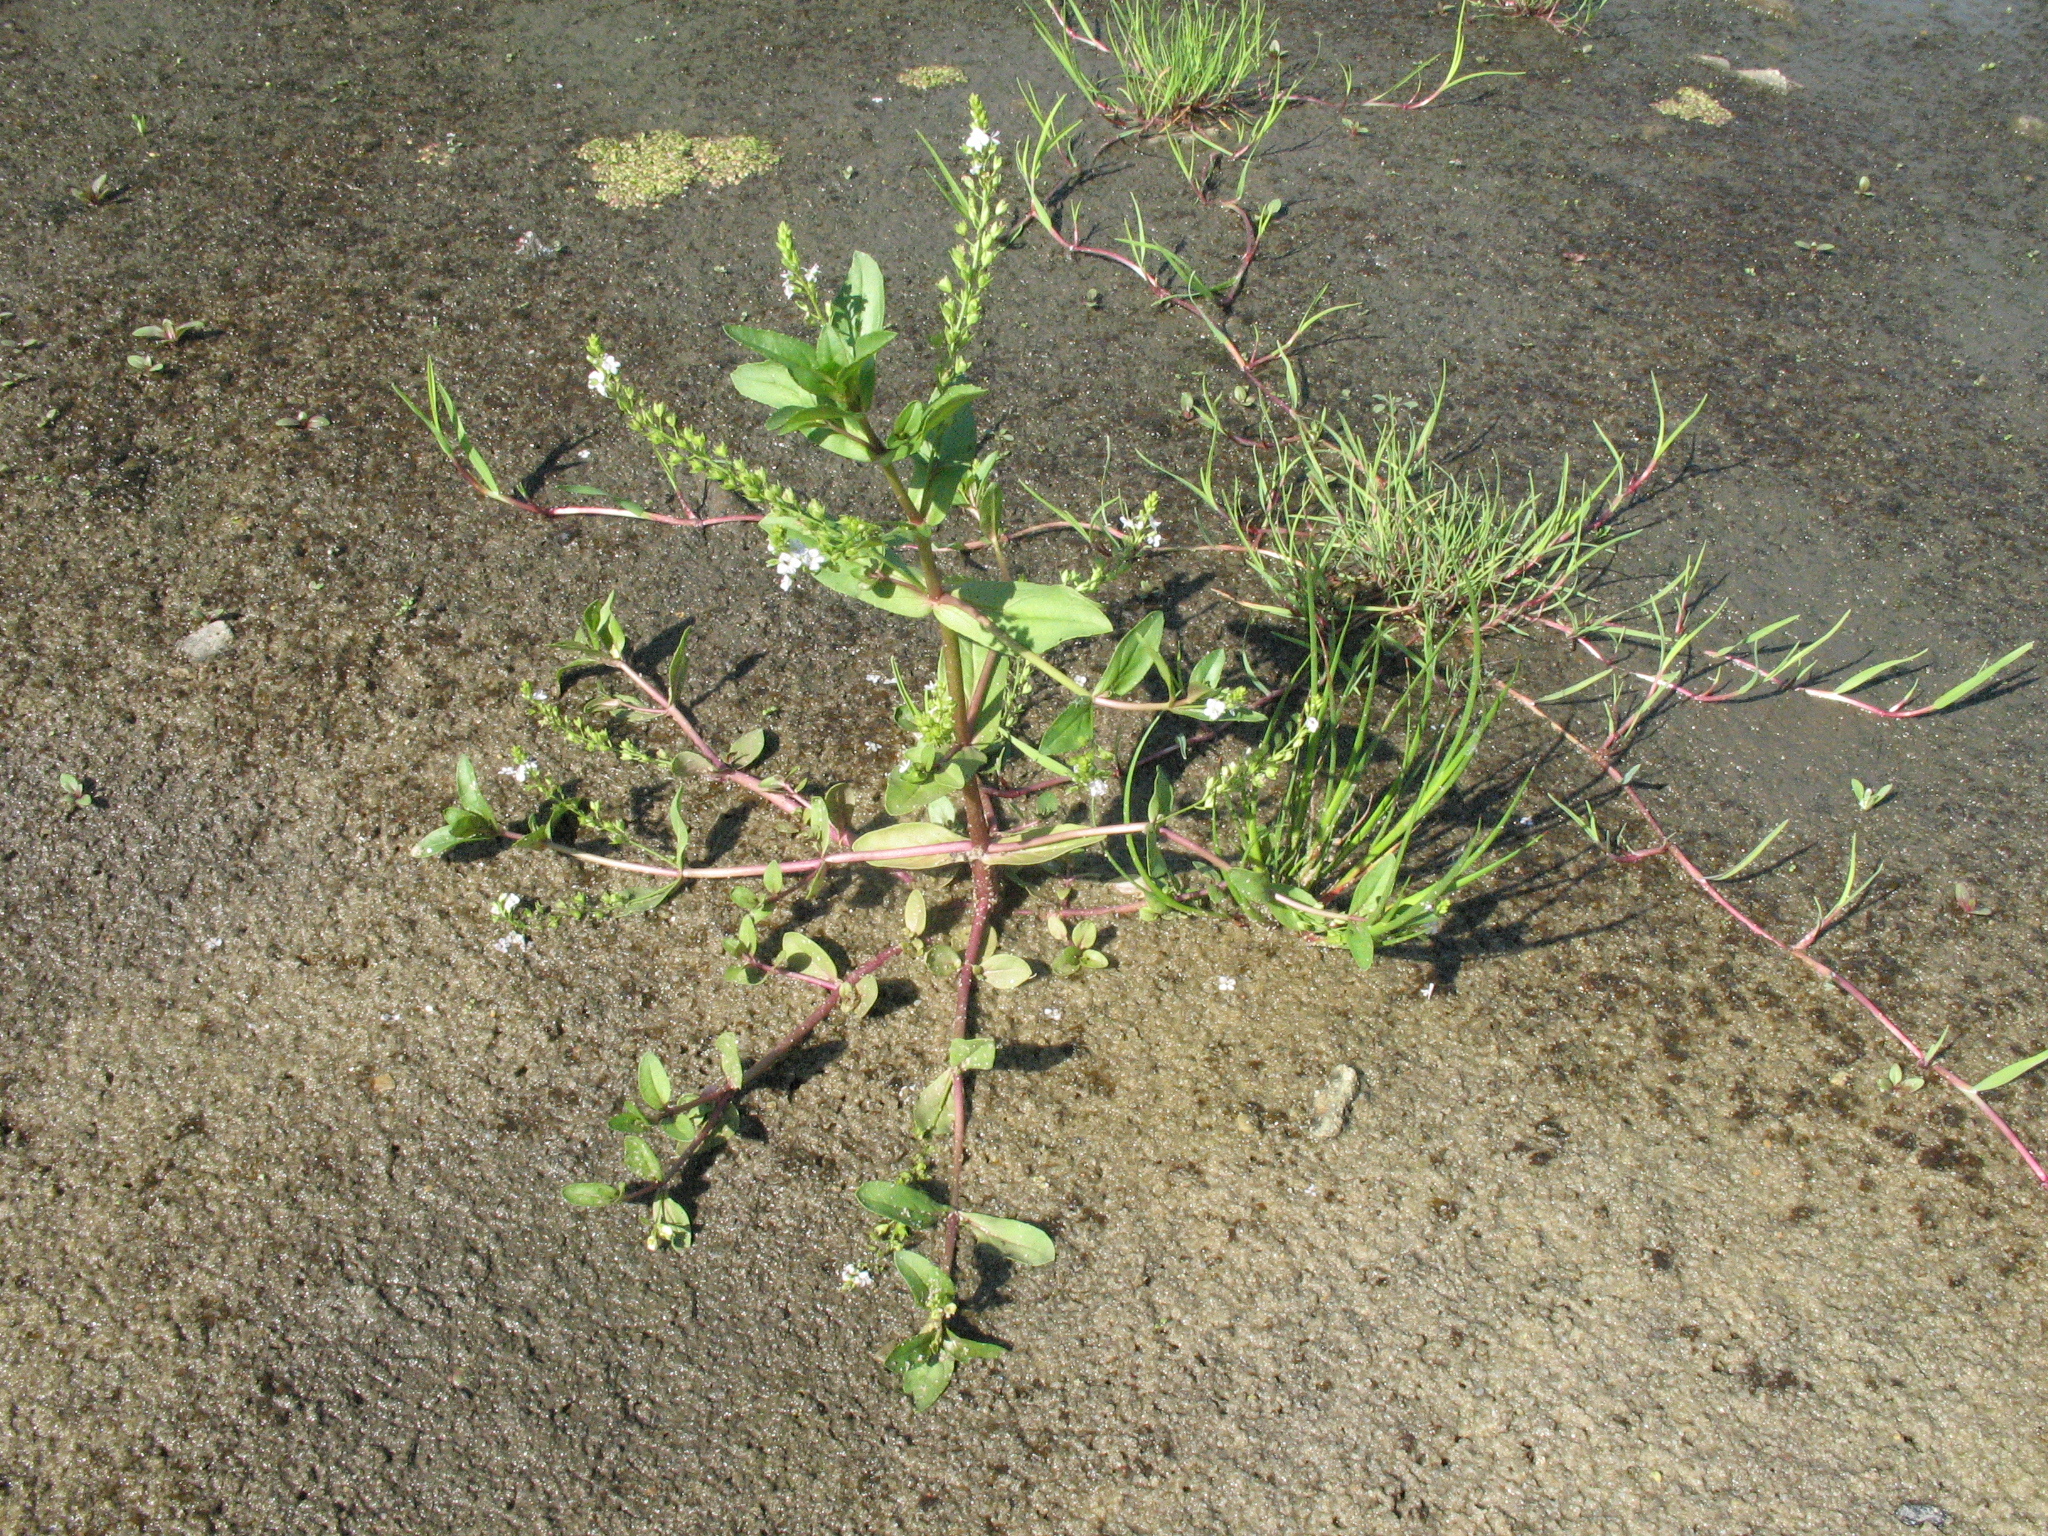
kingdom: Plantae
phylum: Tracheophyta
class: Magnoliopsida
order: Lamiales
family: Plantaginaceae
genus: Veronica
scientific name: Veronica anagallis-aquatica
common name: Water speedwell
